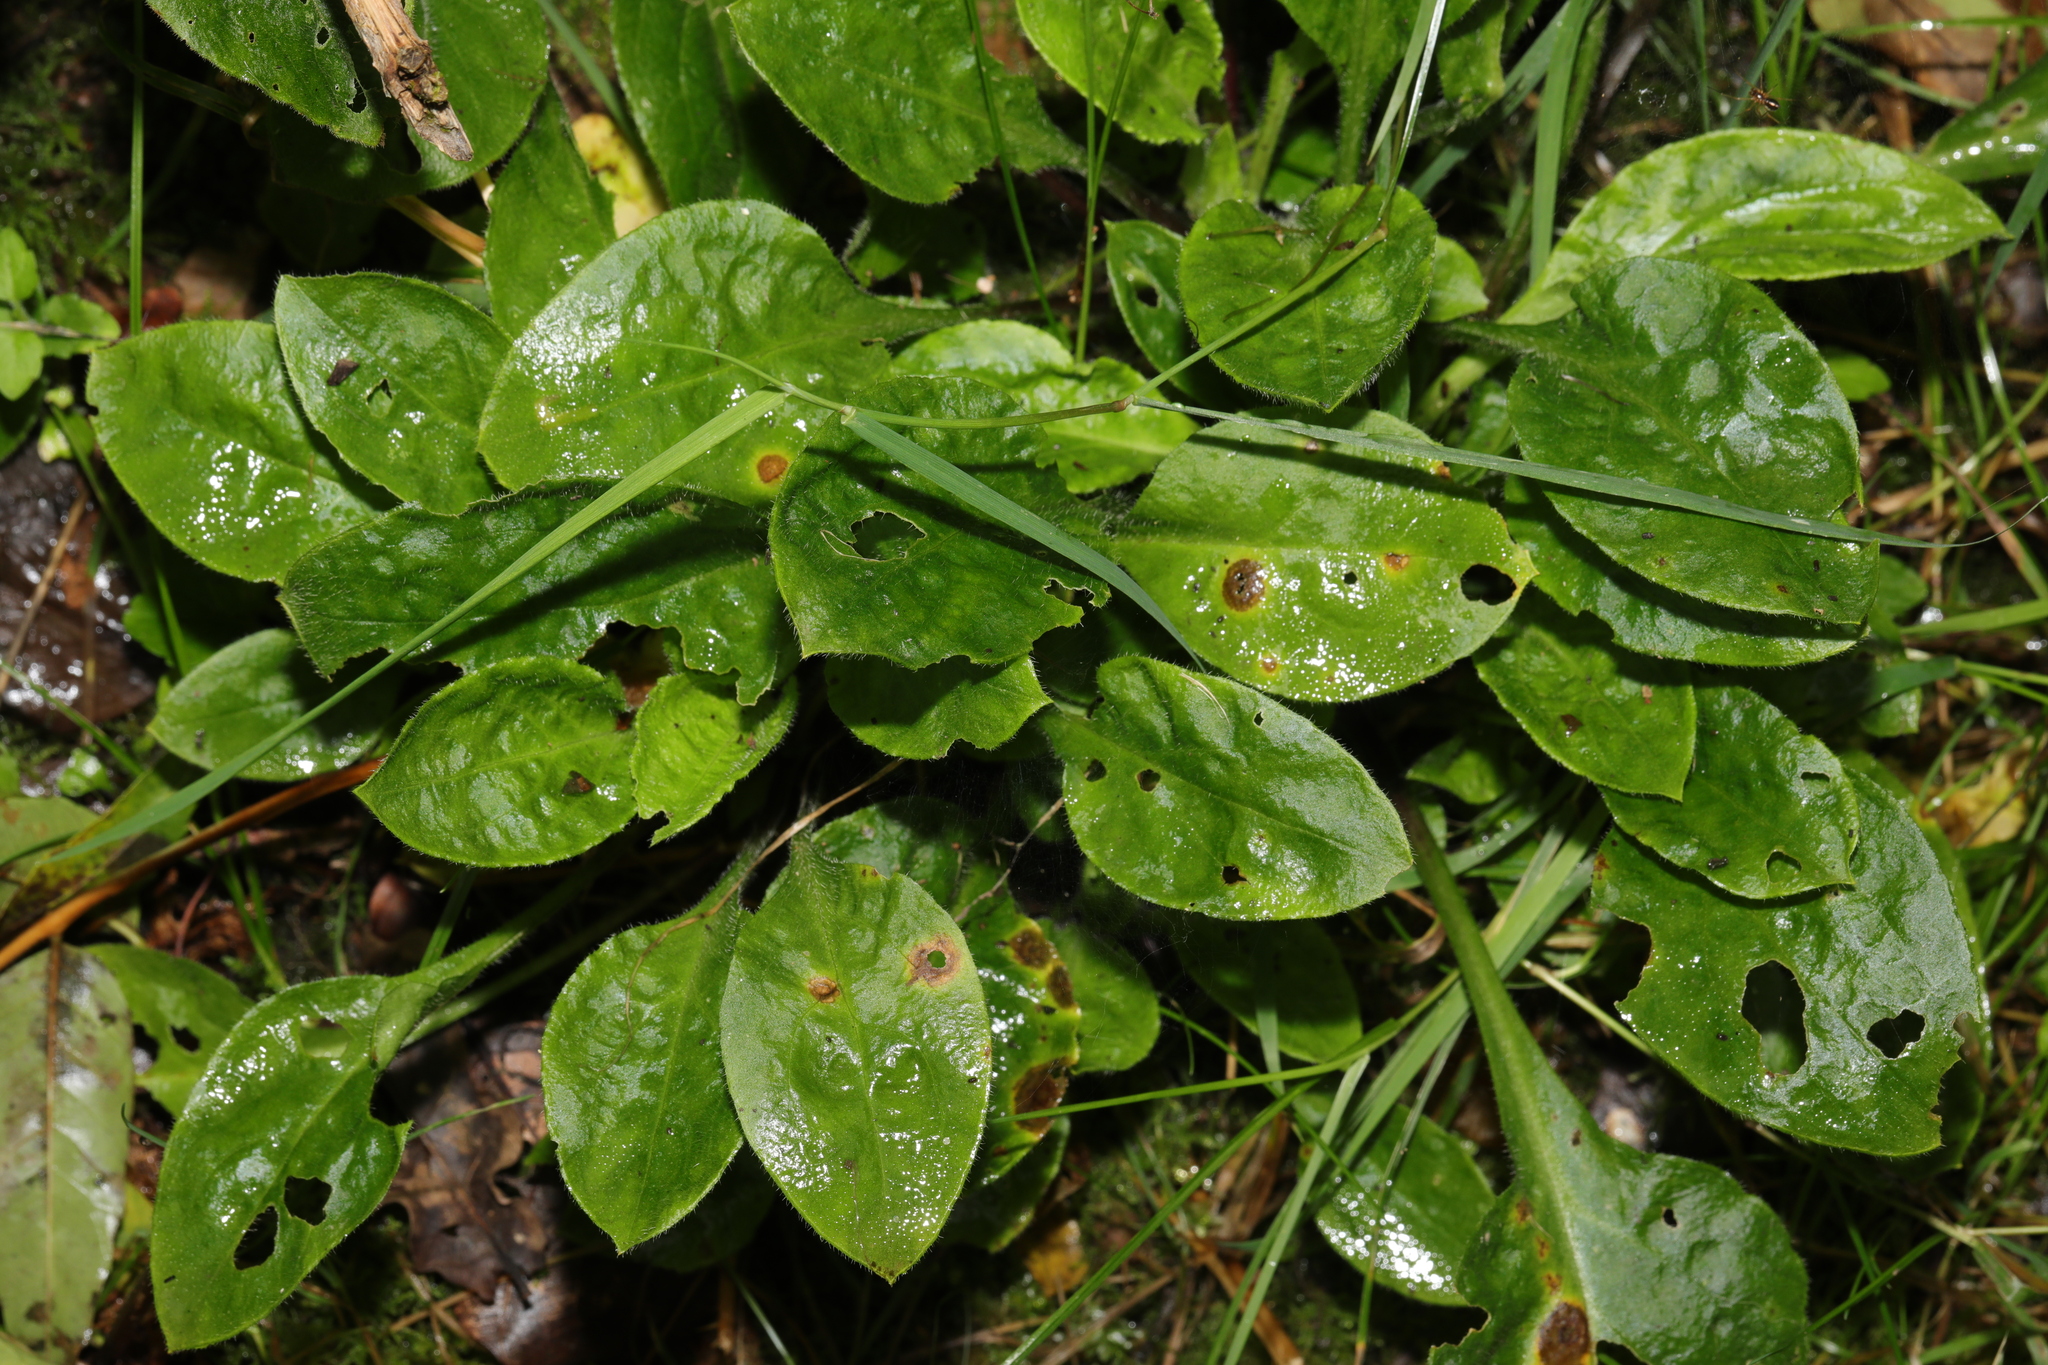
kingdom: Plantae
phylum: Tracheophyta
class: Magnoliopsida
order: Caryophyllales
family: Caryophyllaceae
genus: Silene
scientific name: Silene dioica
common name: Red campion
